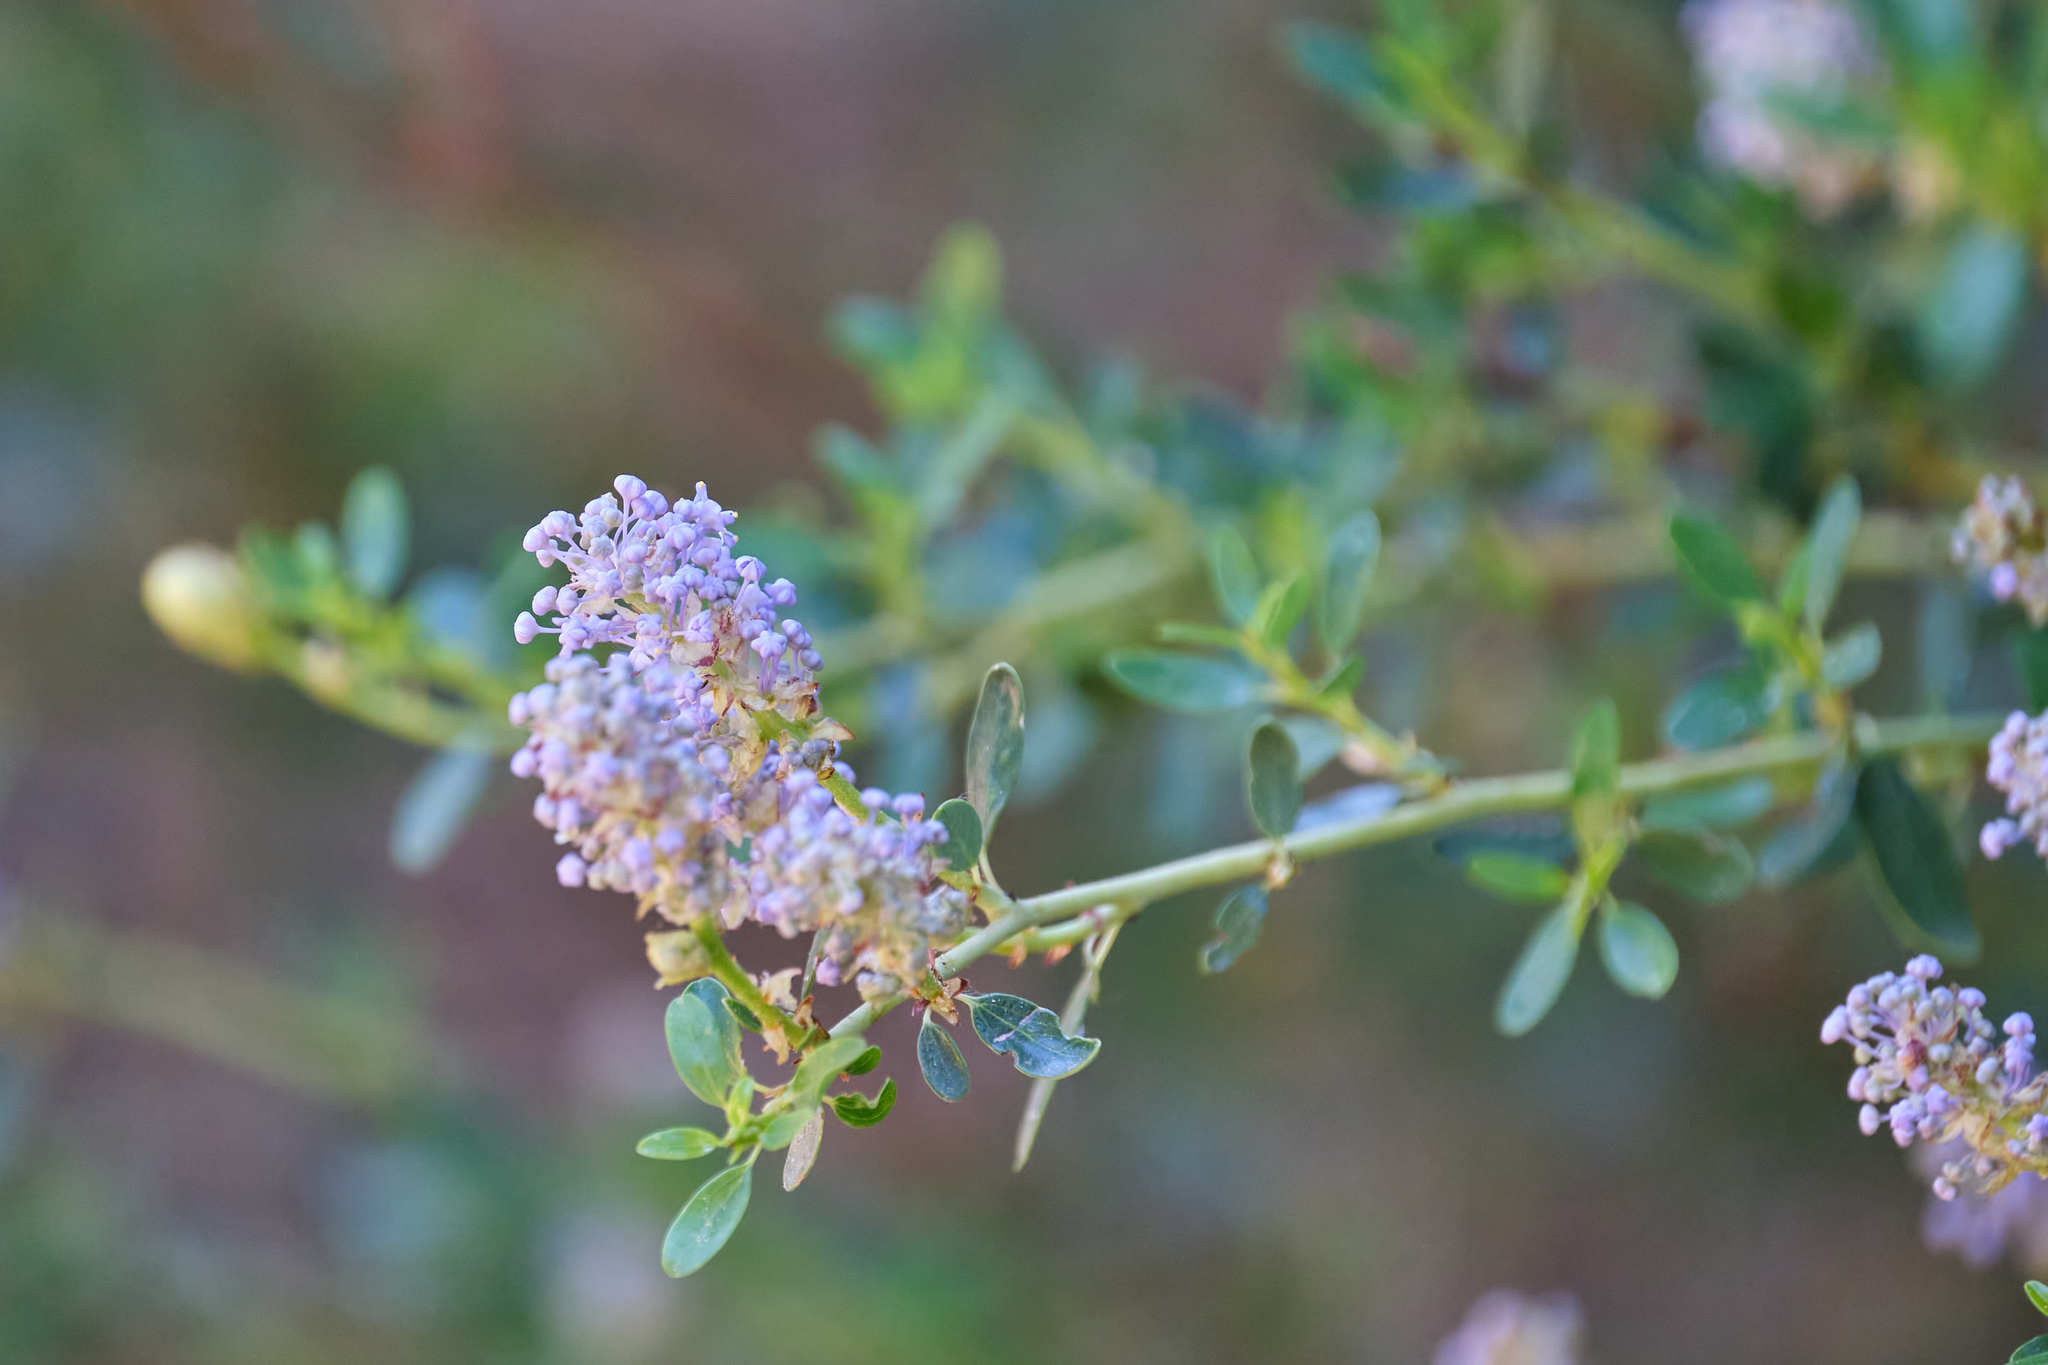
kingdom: Plantae
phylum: Tracheophyta
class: Magnoliopsida
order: Rosales
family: Rhamnaceae
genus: Ceanothus
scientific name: Ceanothus parvifolius
